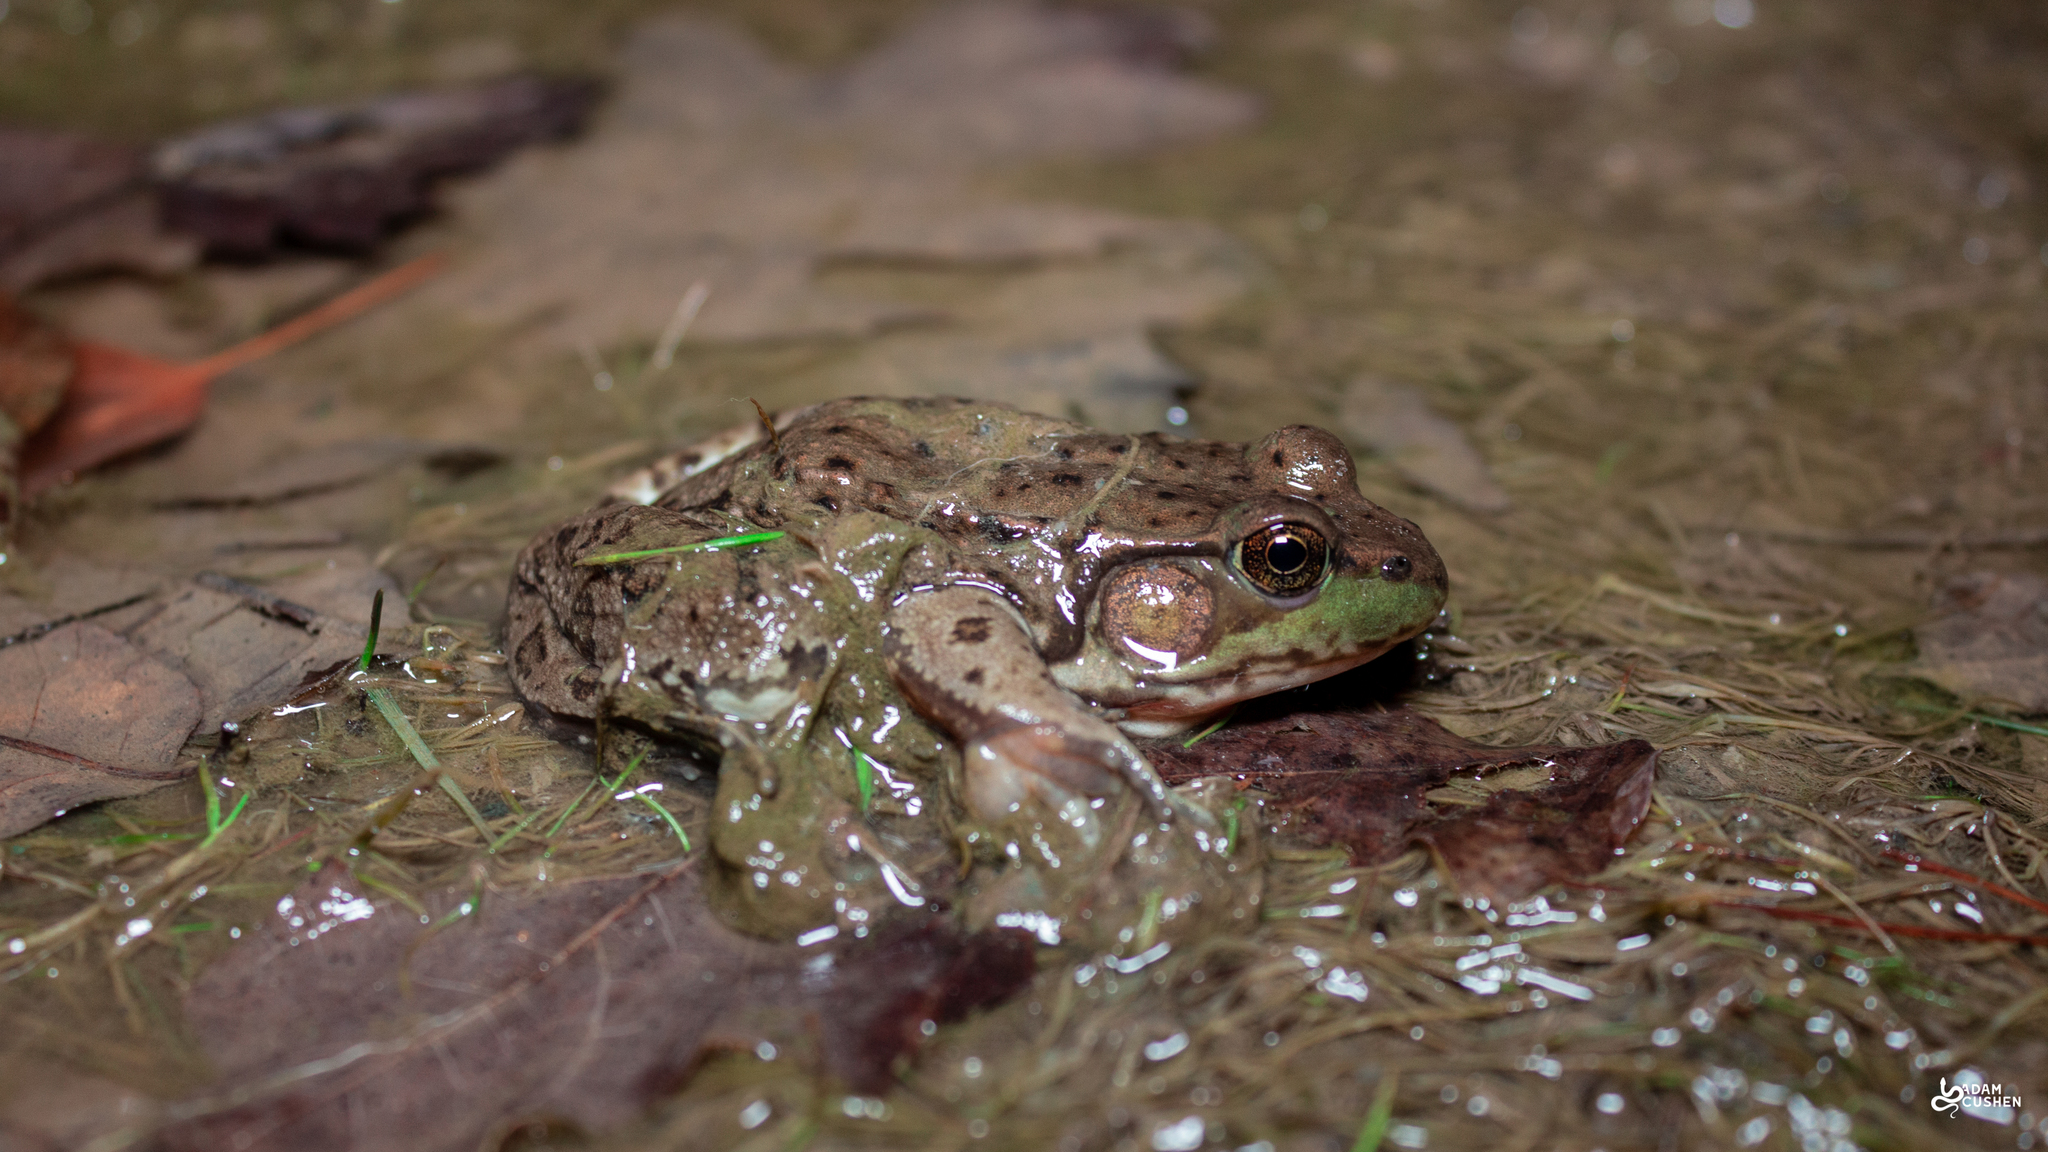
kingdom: Animalia
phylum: Chordata
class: Amphibia
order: Anura
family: Ranidae
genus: Lithobates
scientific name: Lithobates clamitans
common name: Green frog
